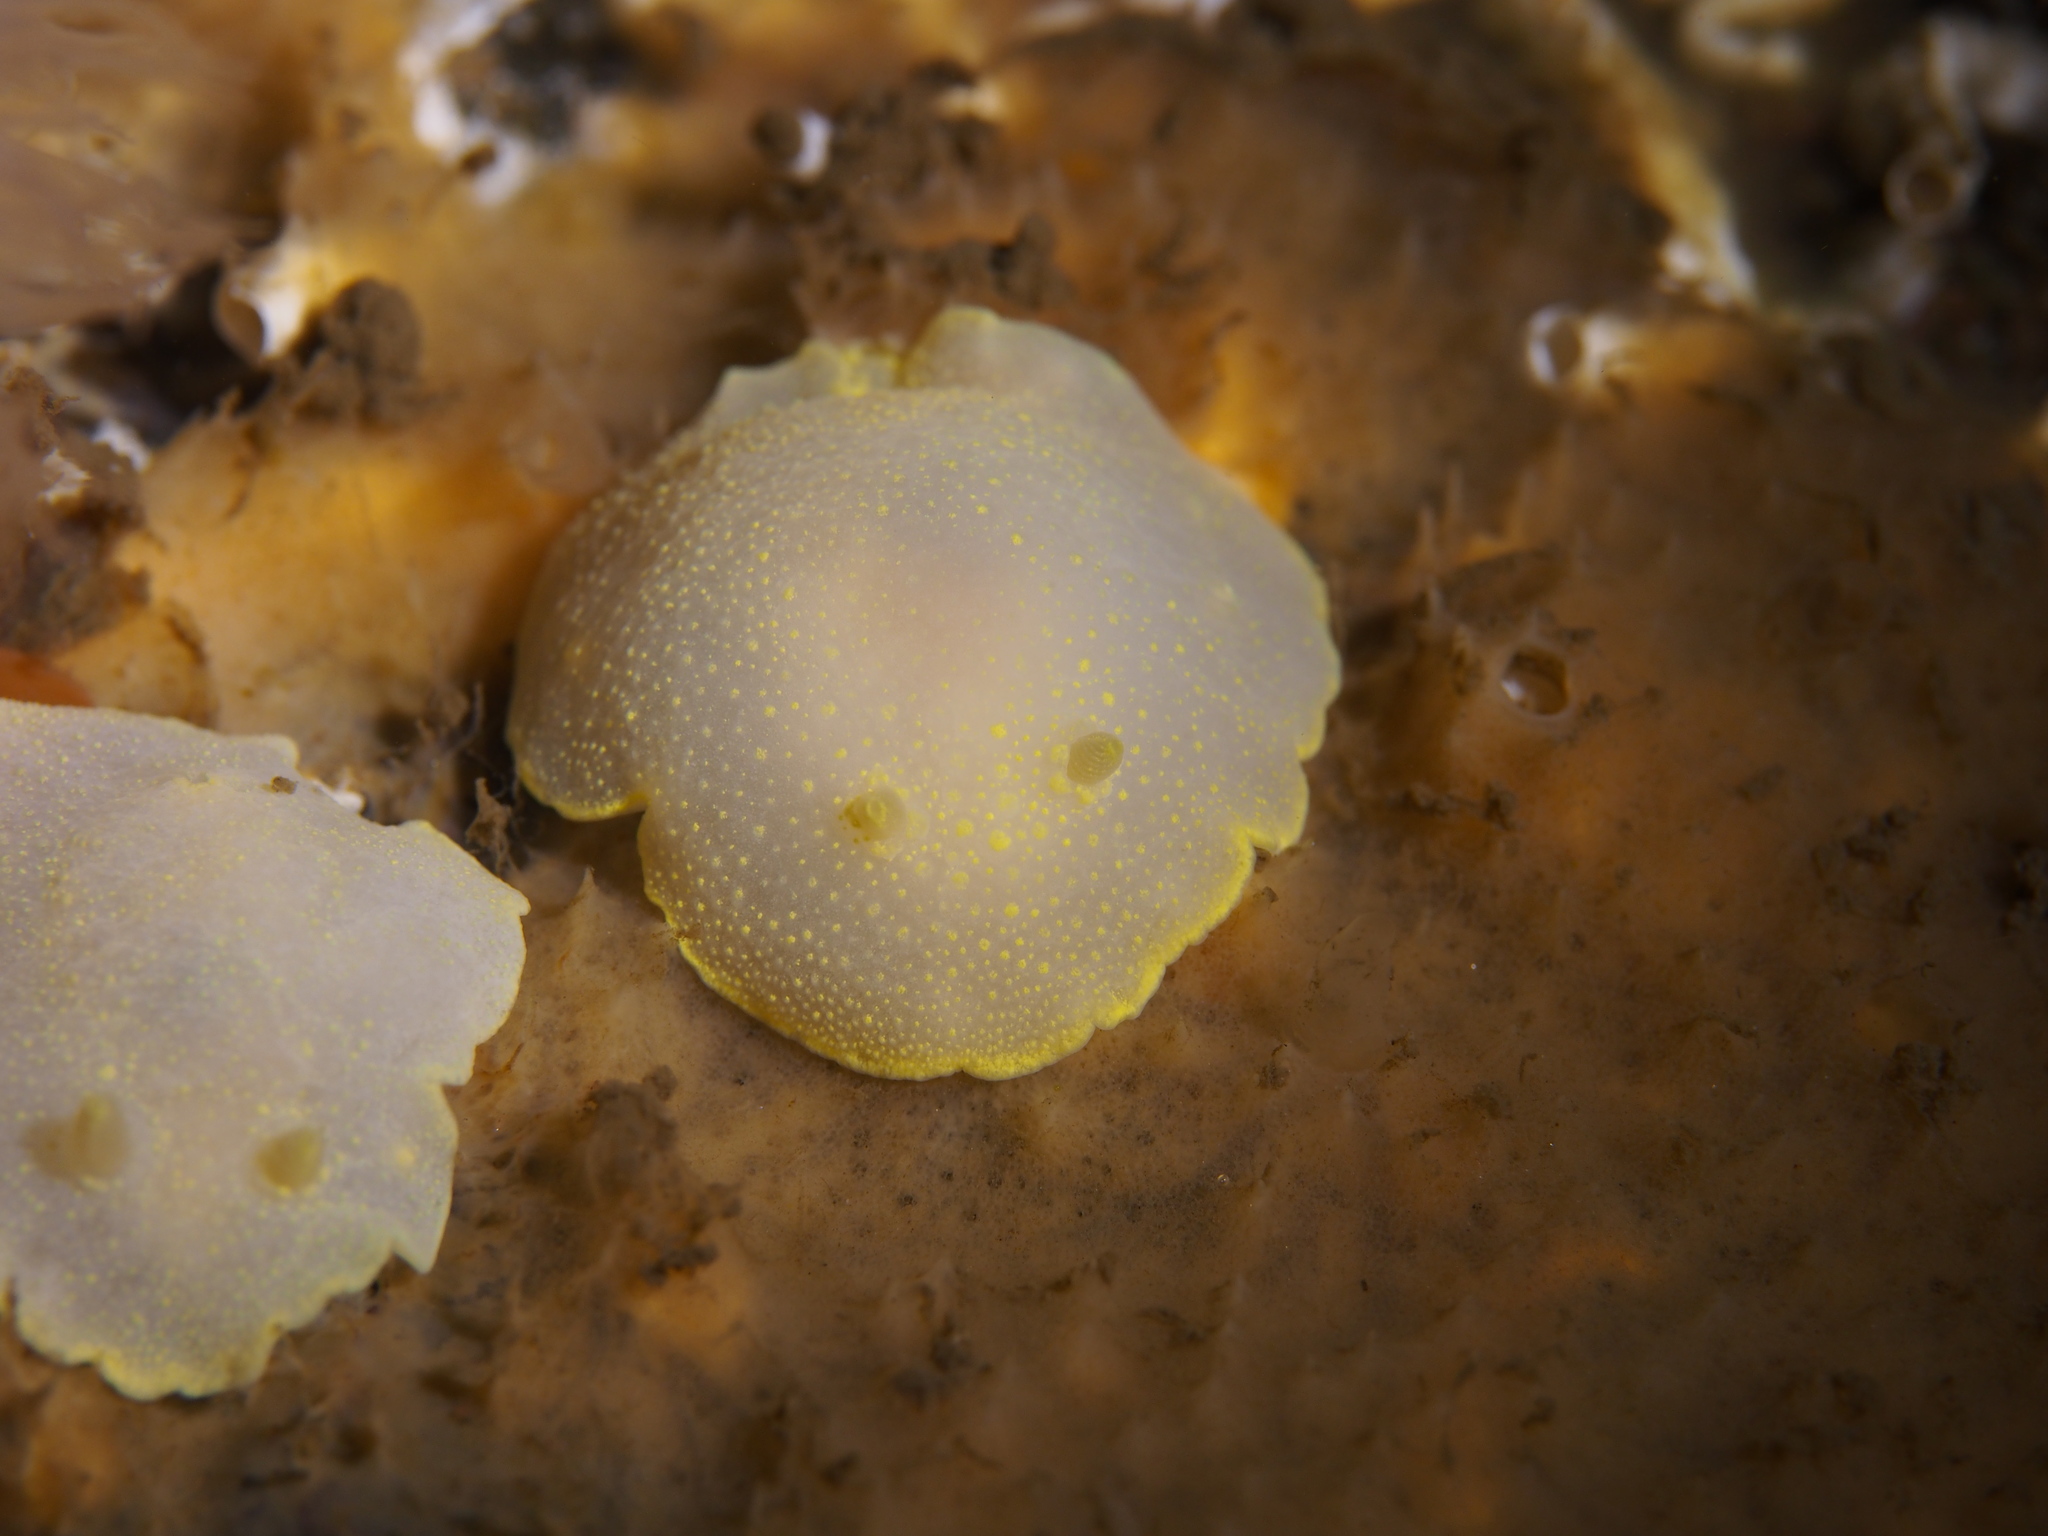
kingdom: Animalia
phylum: Mollusca
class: Gastropoda
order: Nudibranchia
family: Cadlinidae
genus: Cadlina
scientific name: Cadlina laevis
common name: White atlantic cadlina
